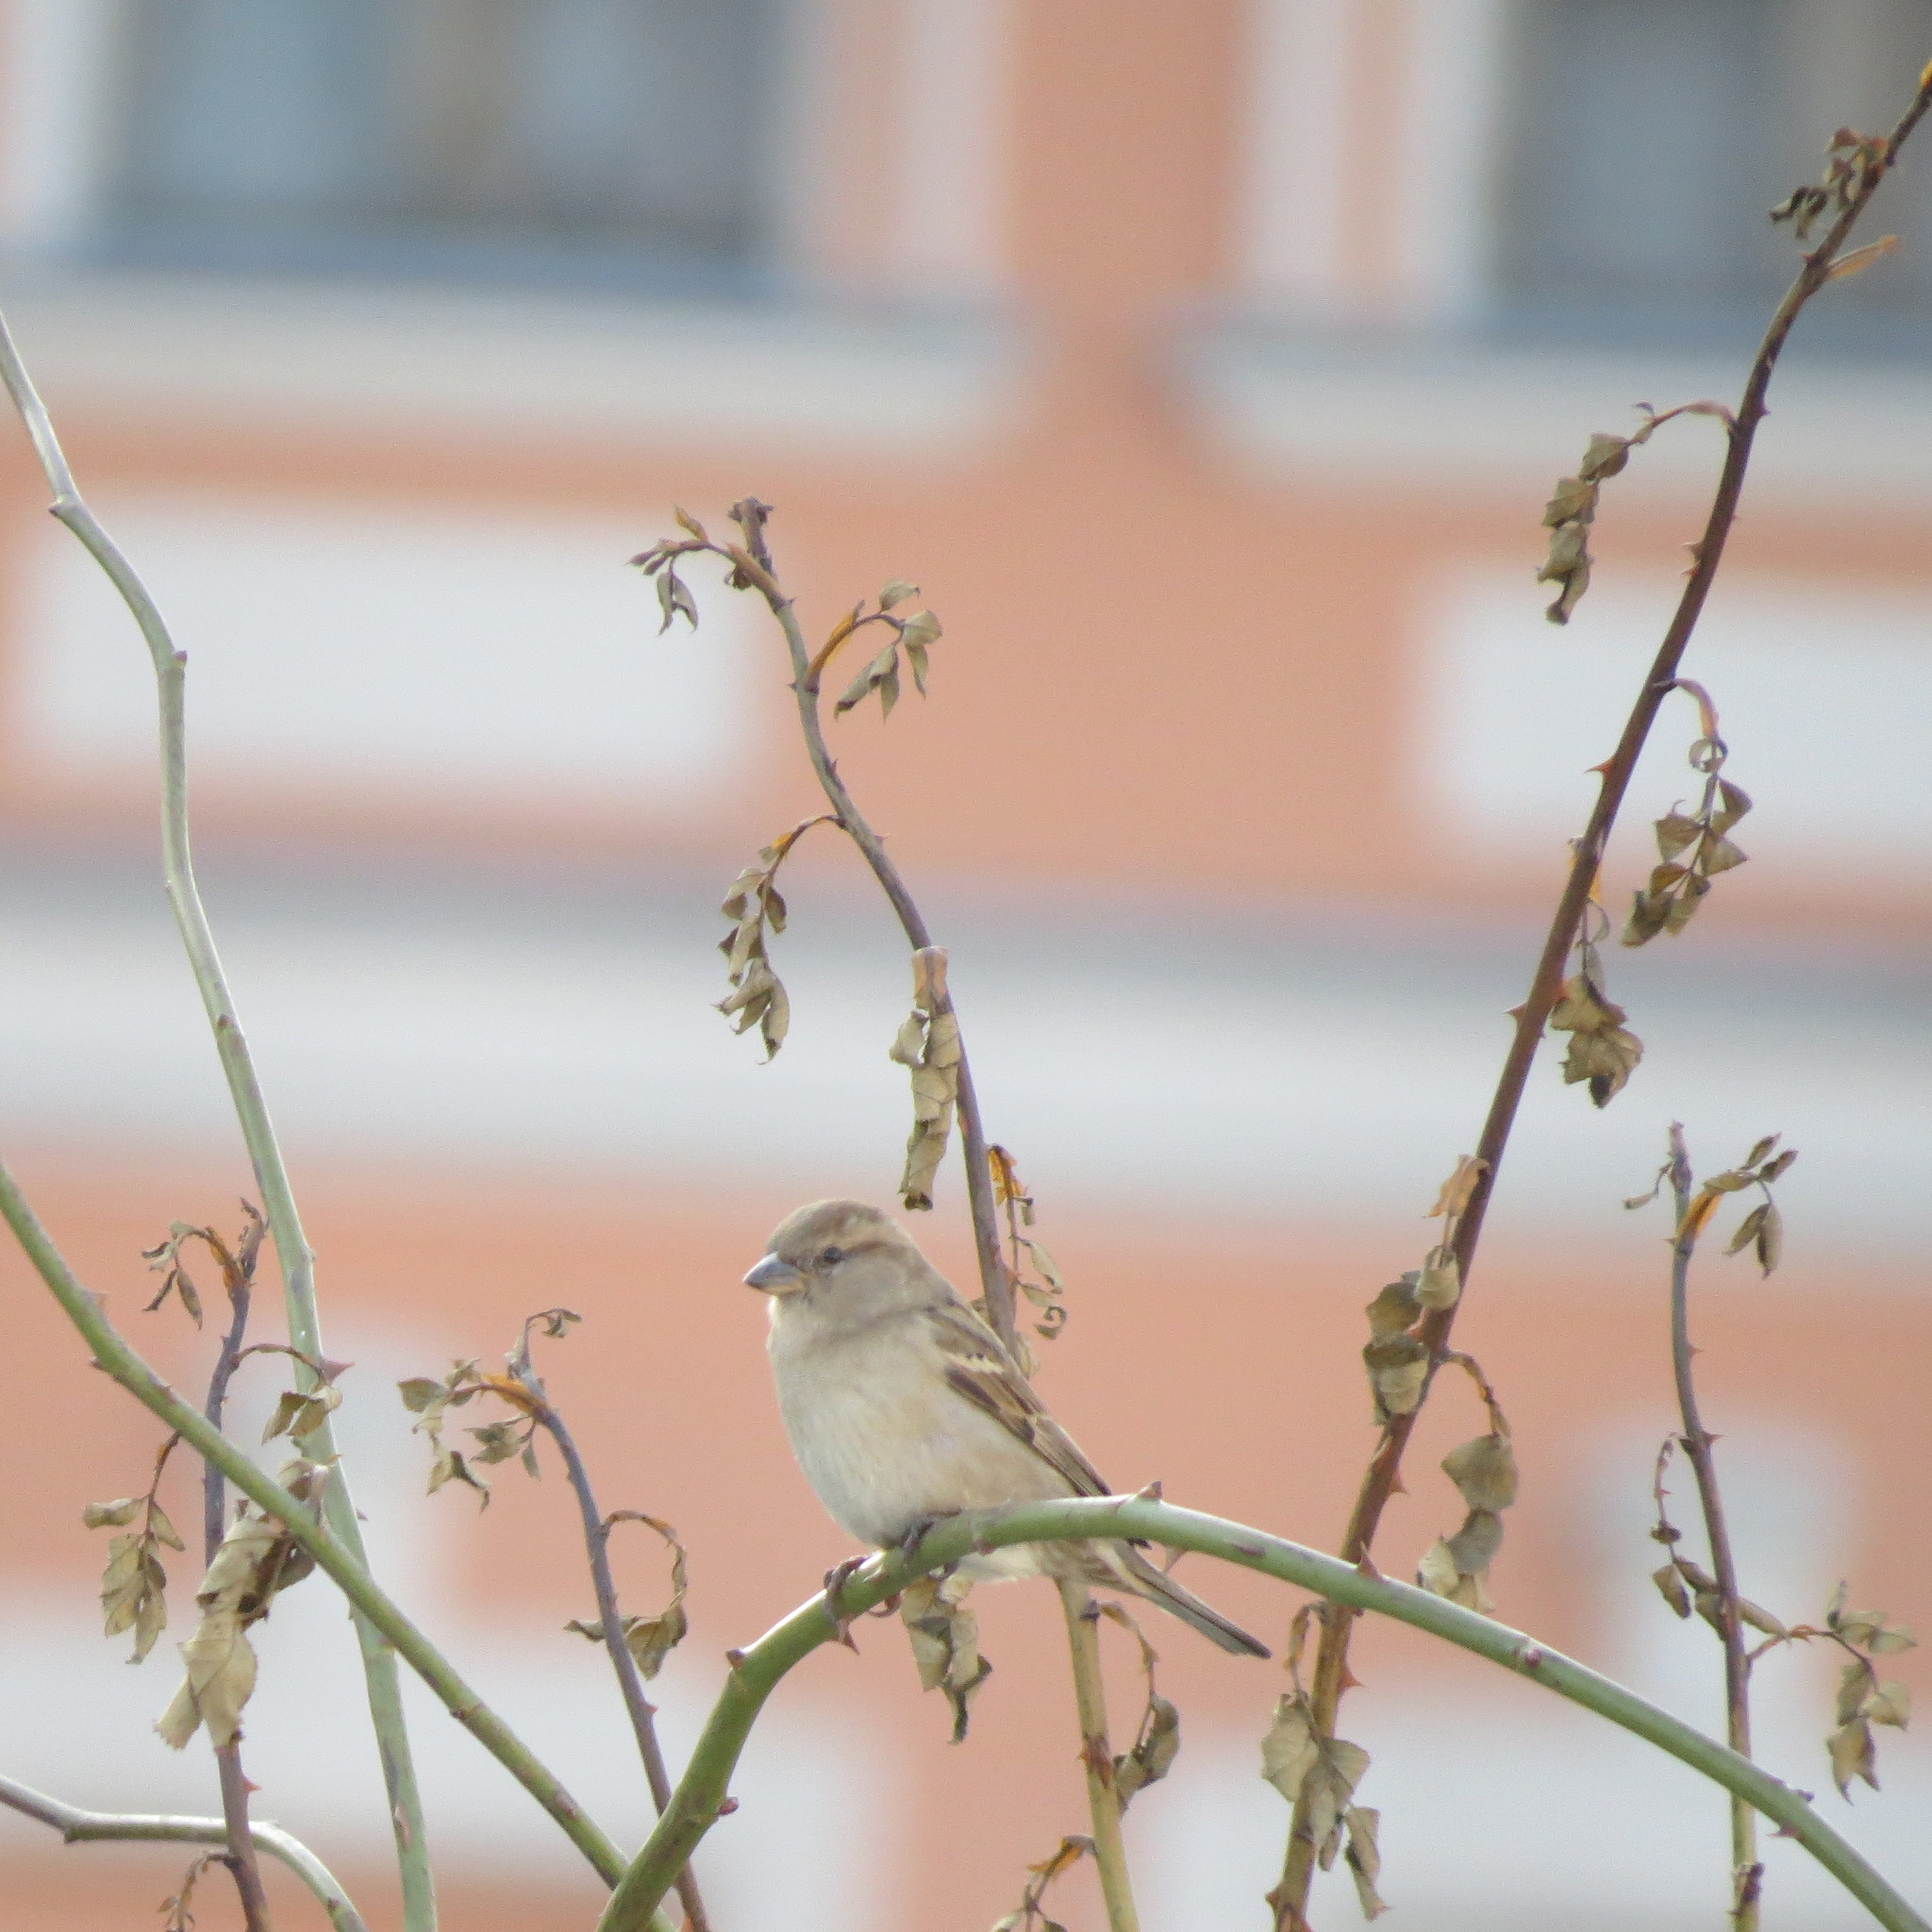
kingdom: Animalia
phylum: Chordata
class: Aves
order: Passeriformes
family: Passeridae
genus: Passer
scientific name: Passer domesticus
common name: House sparrow
